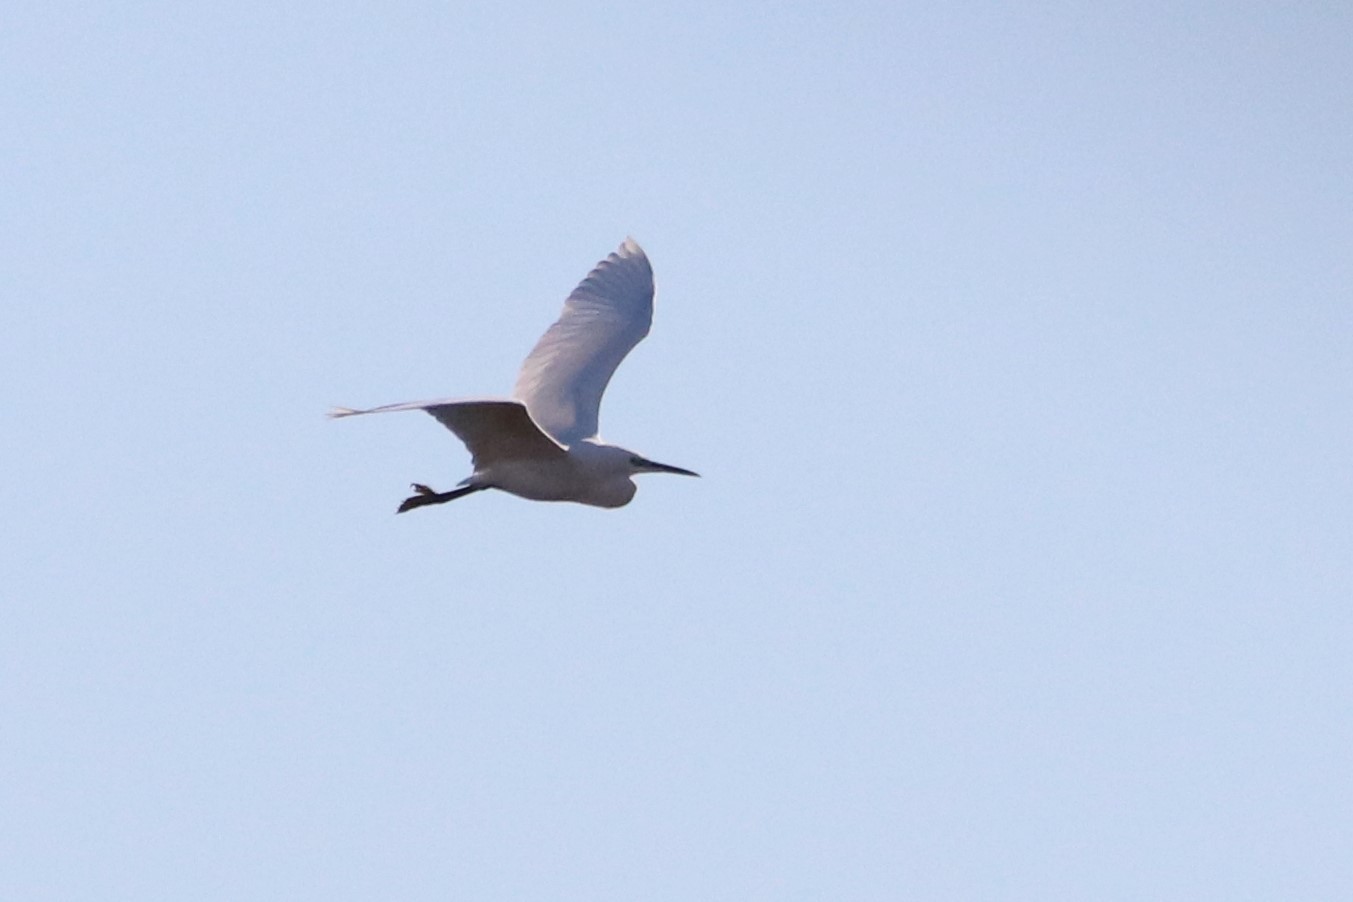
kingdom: Animalia
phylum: Chordata
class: Aves
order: Pelecaniformes
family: Ardeidae
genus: Egretta
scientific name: Egretta garzetta
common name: Little egret
